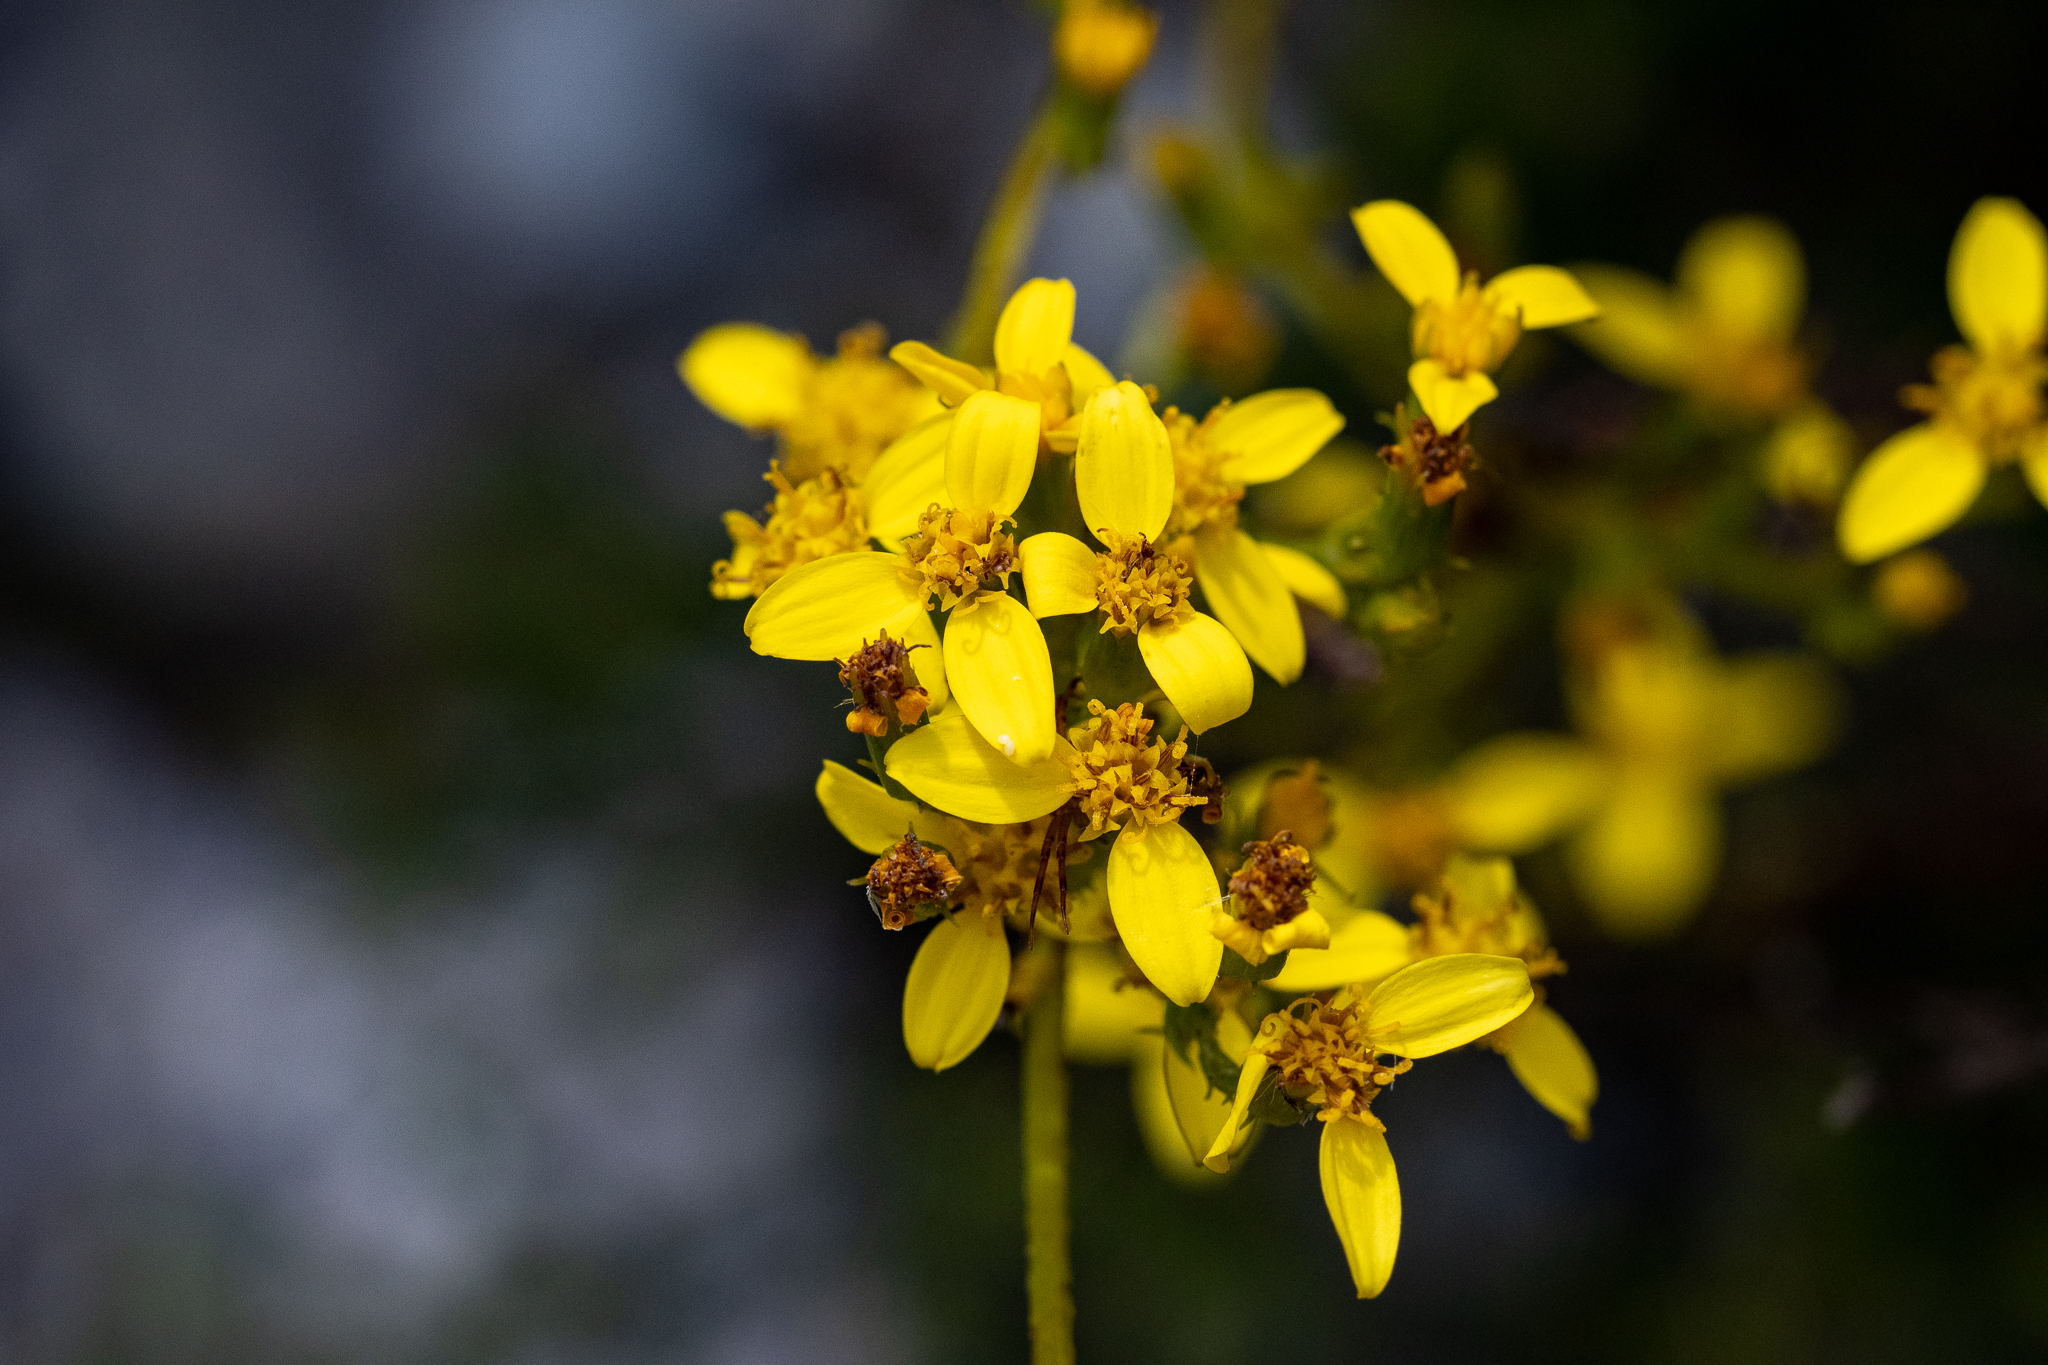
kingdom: Plantae
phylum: Tracheophyta
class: Magnoliopsida
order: Asterales
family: Asteraceae
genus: Senecio
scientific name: Senecio pubigerus
